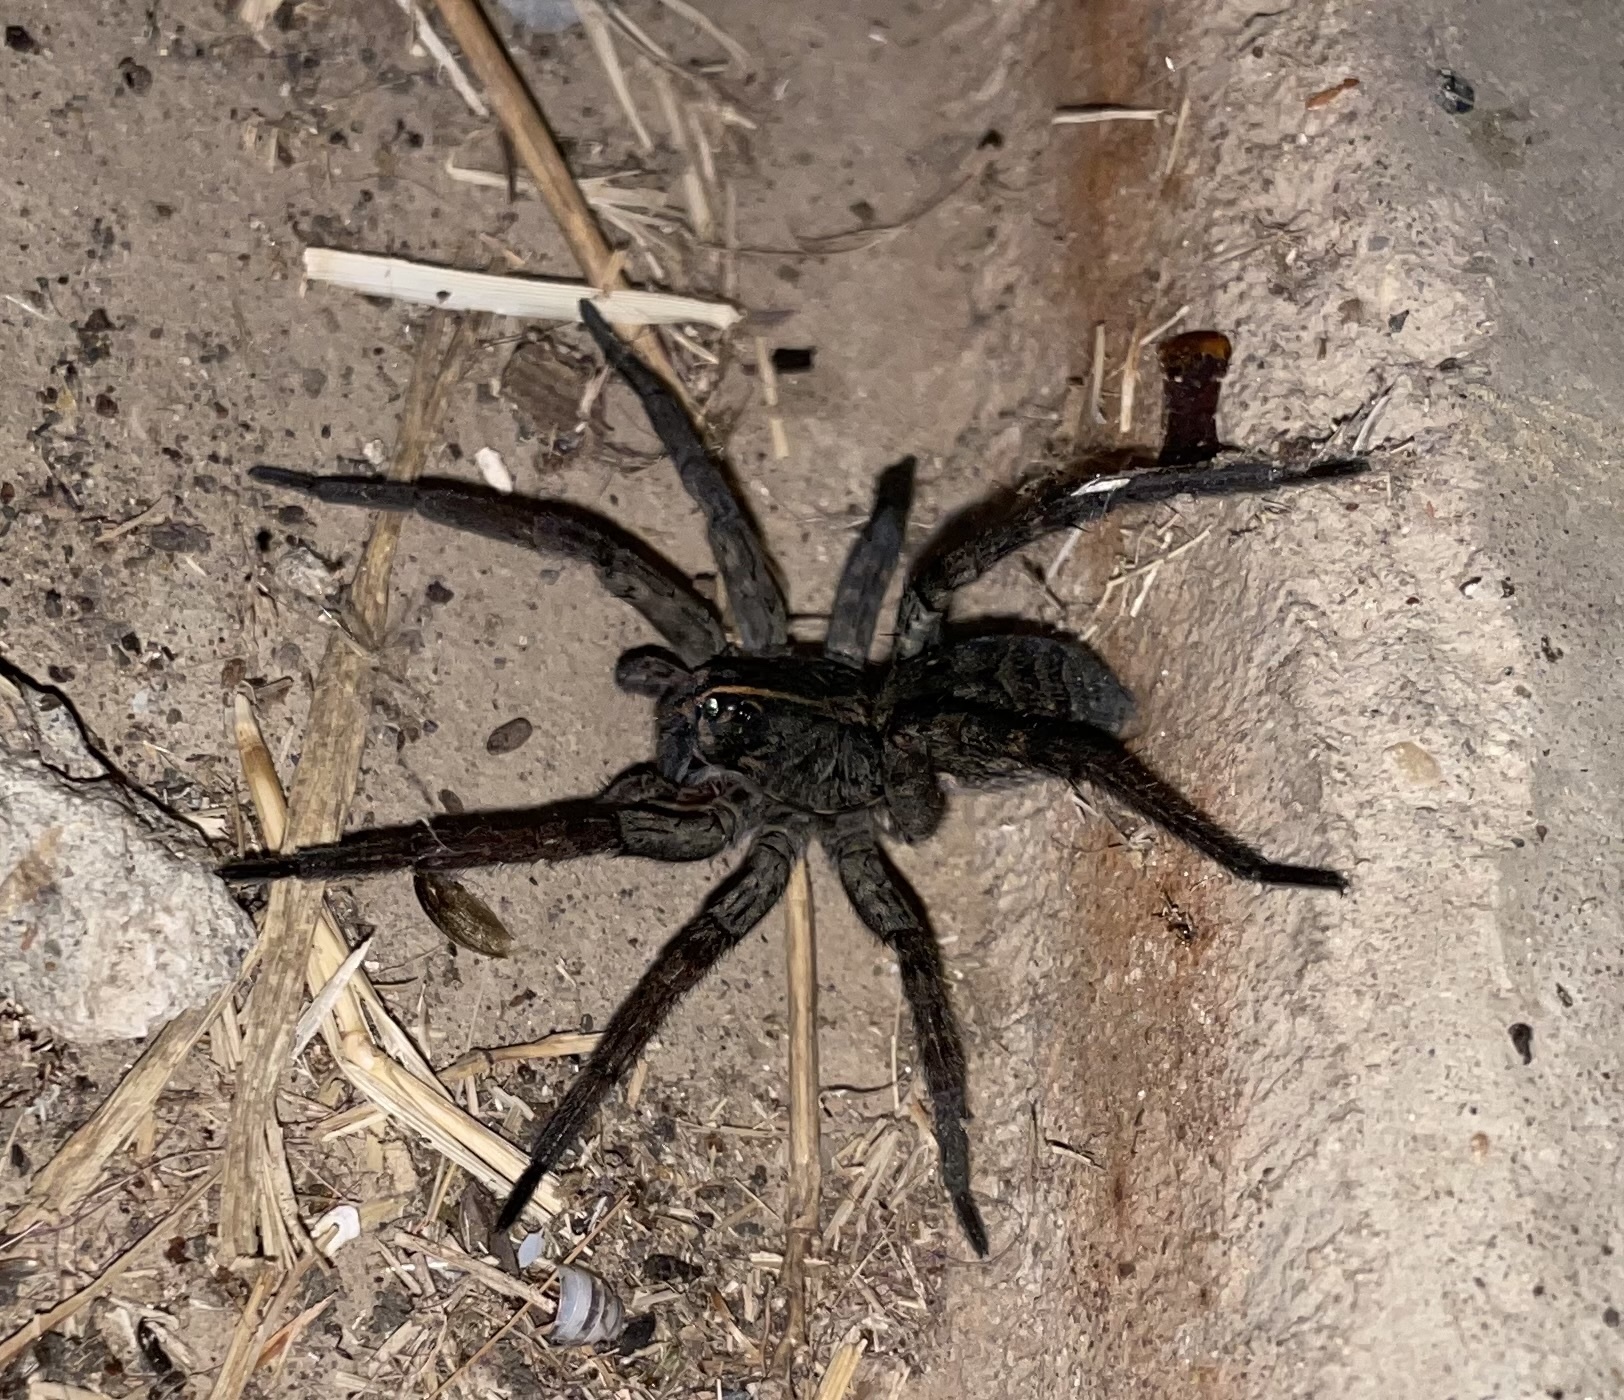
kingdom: Animalia
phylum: Arthropoda
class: Arachnida
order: Araneae
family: Lycosidae
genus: Tigrosa
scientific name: Tigrosa grandis
